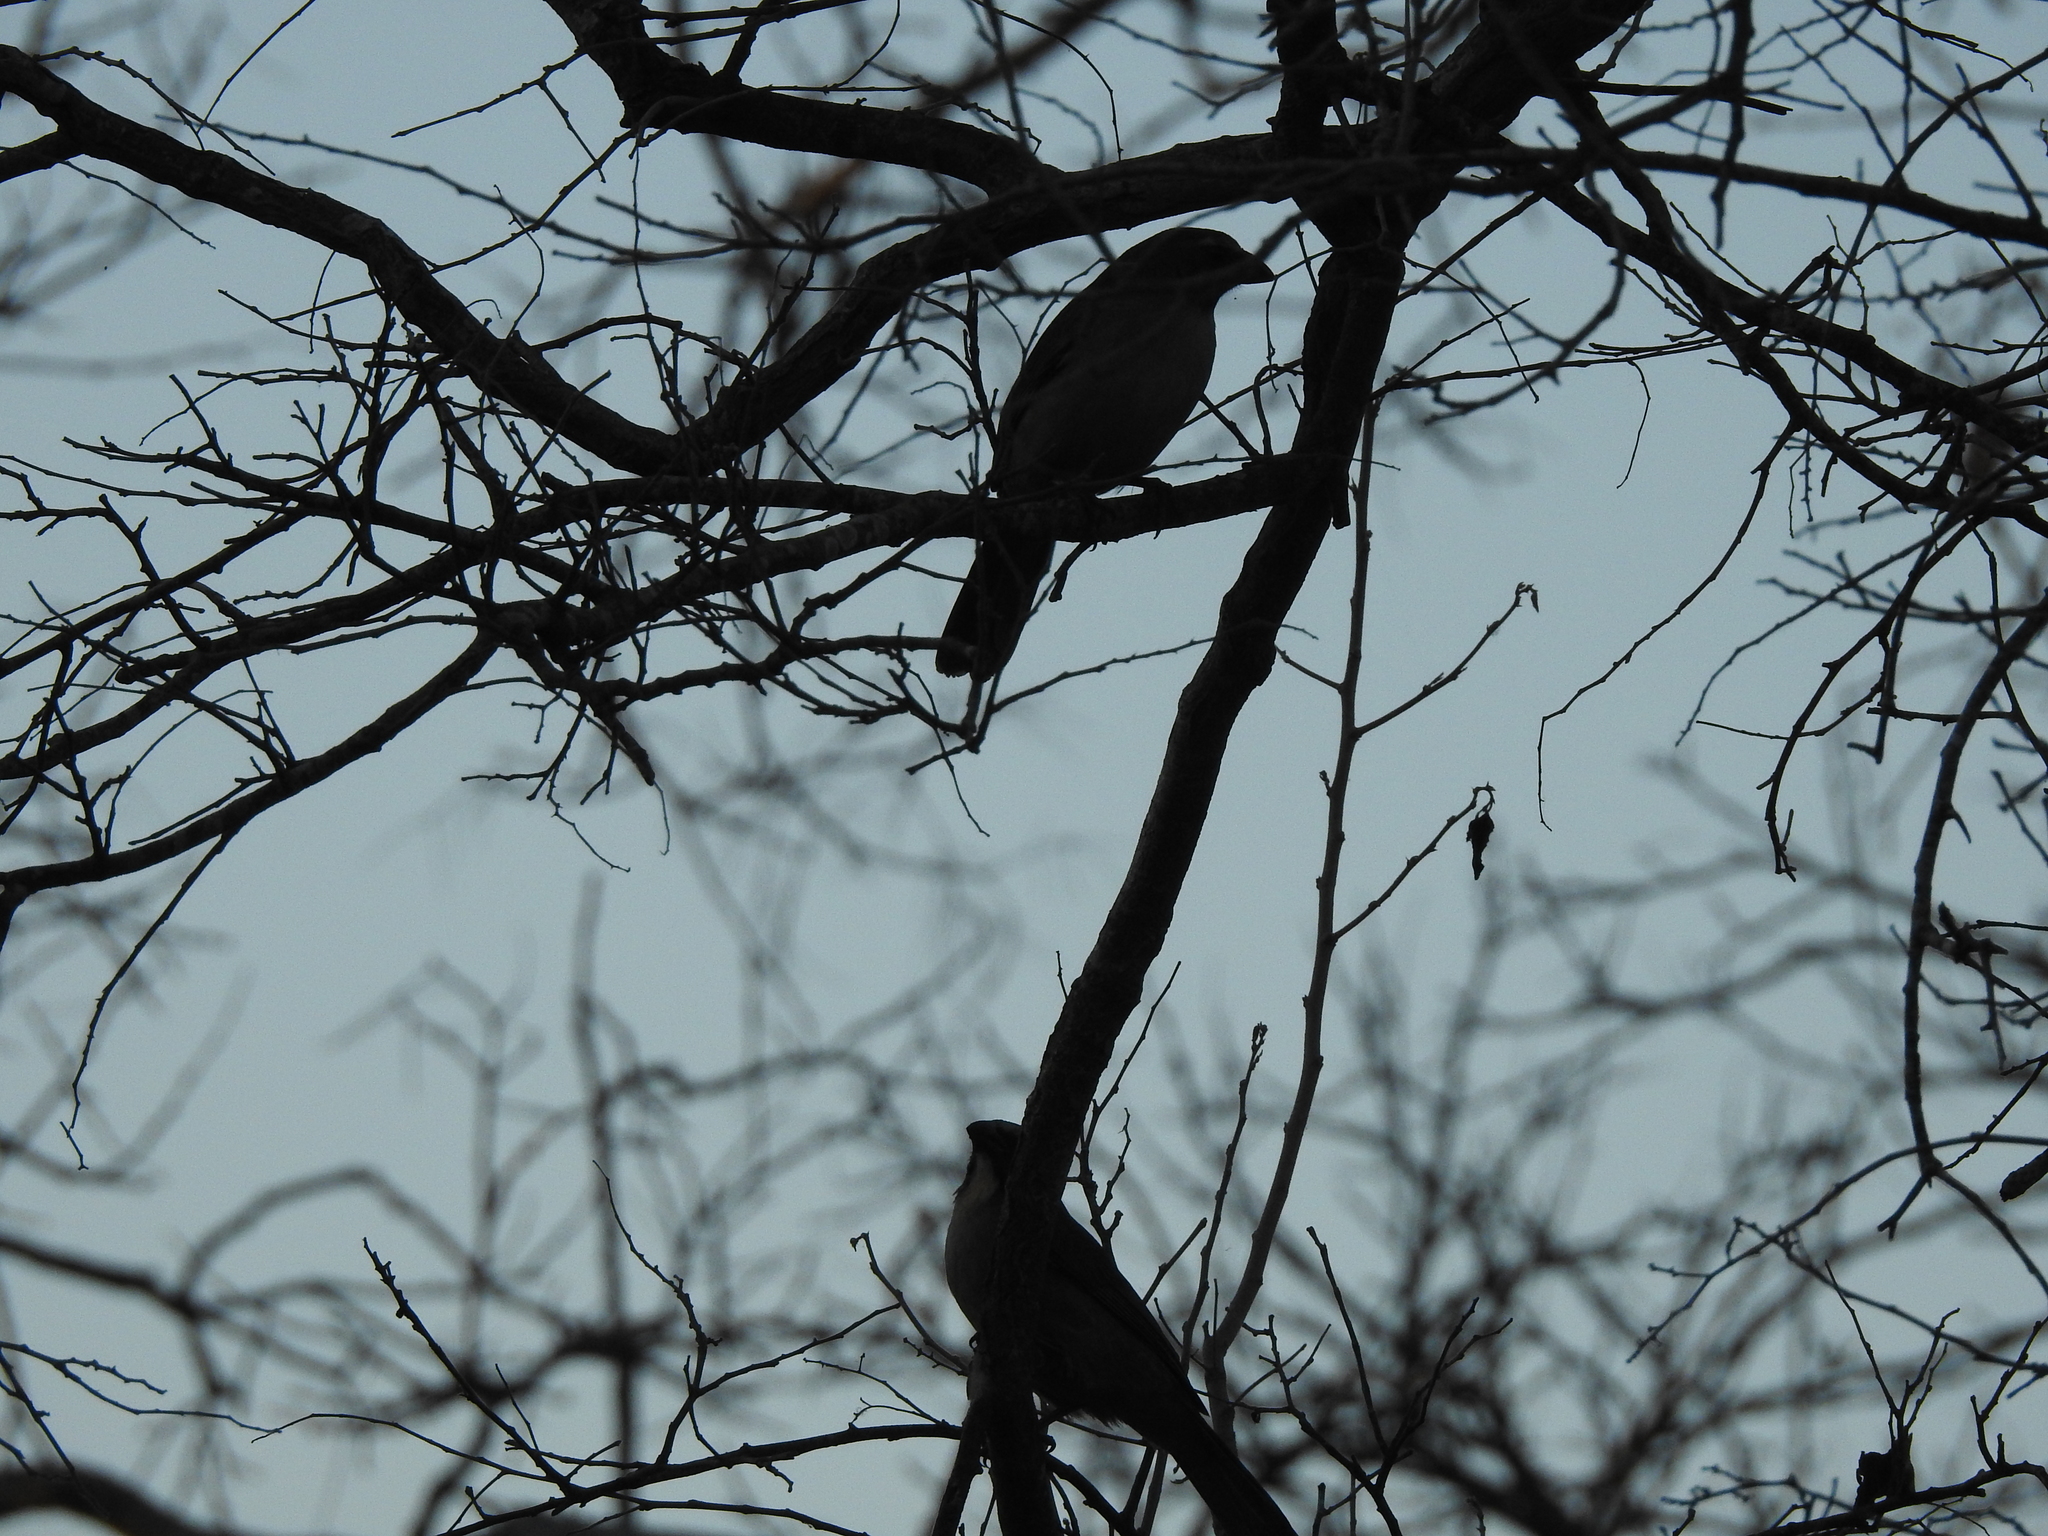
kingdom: Animalia
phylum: Chordata
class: Aves
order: Passeriformes
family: Thraupidae
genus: Saltator
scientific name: Saltator coerulescens
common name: Grayish saltator
